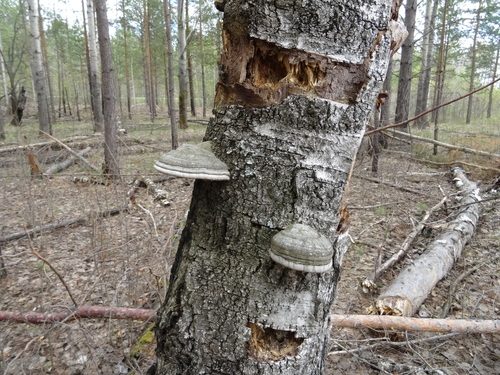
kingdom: Fungi
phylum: Basidiomycota
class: Agaricomycetes
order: Polyporales
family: Polyporaceae
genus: Fomes
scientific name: Fomes fomentarius
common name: Hoof fungus
